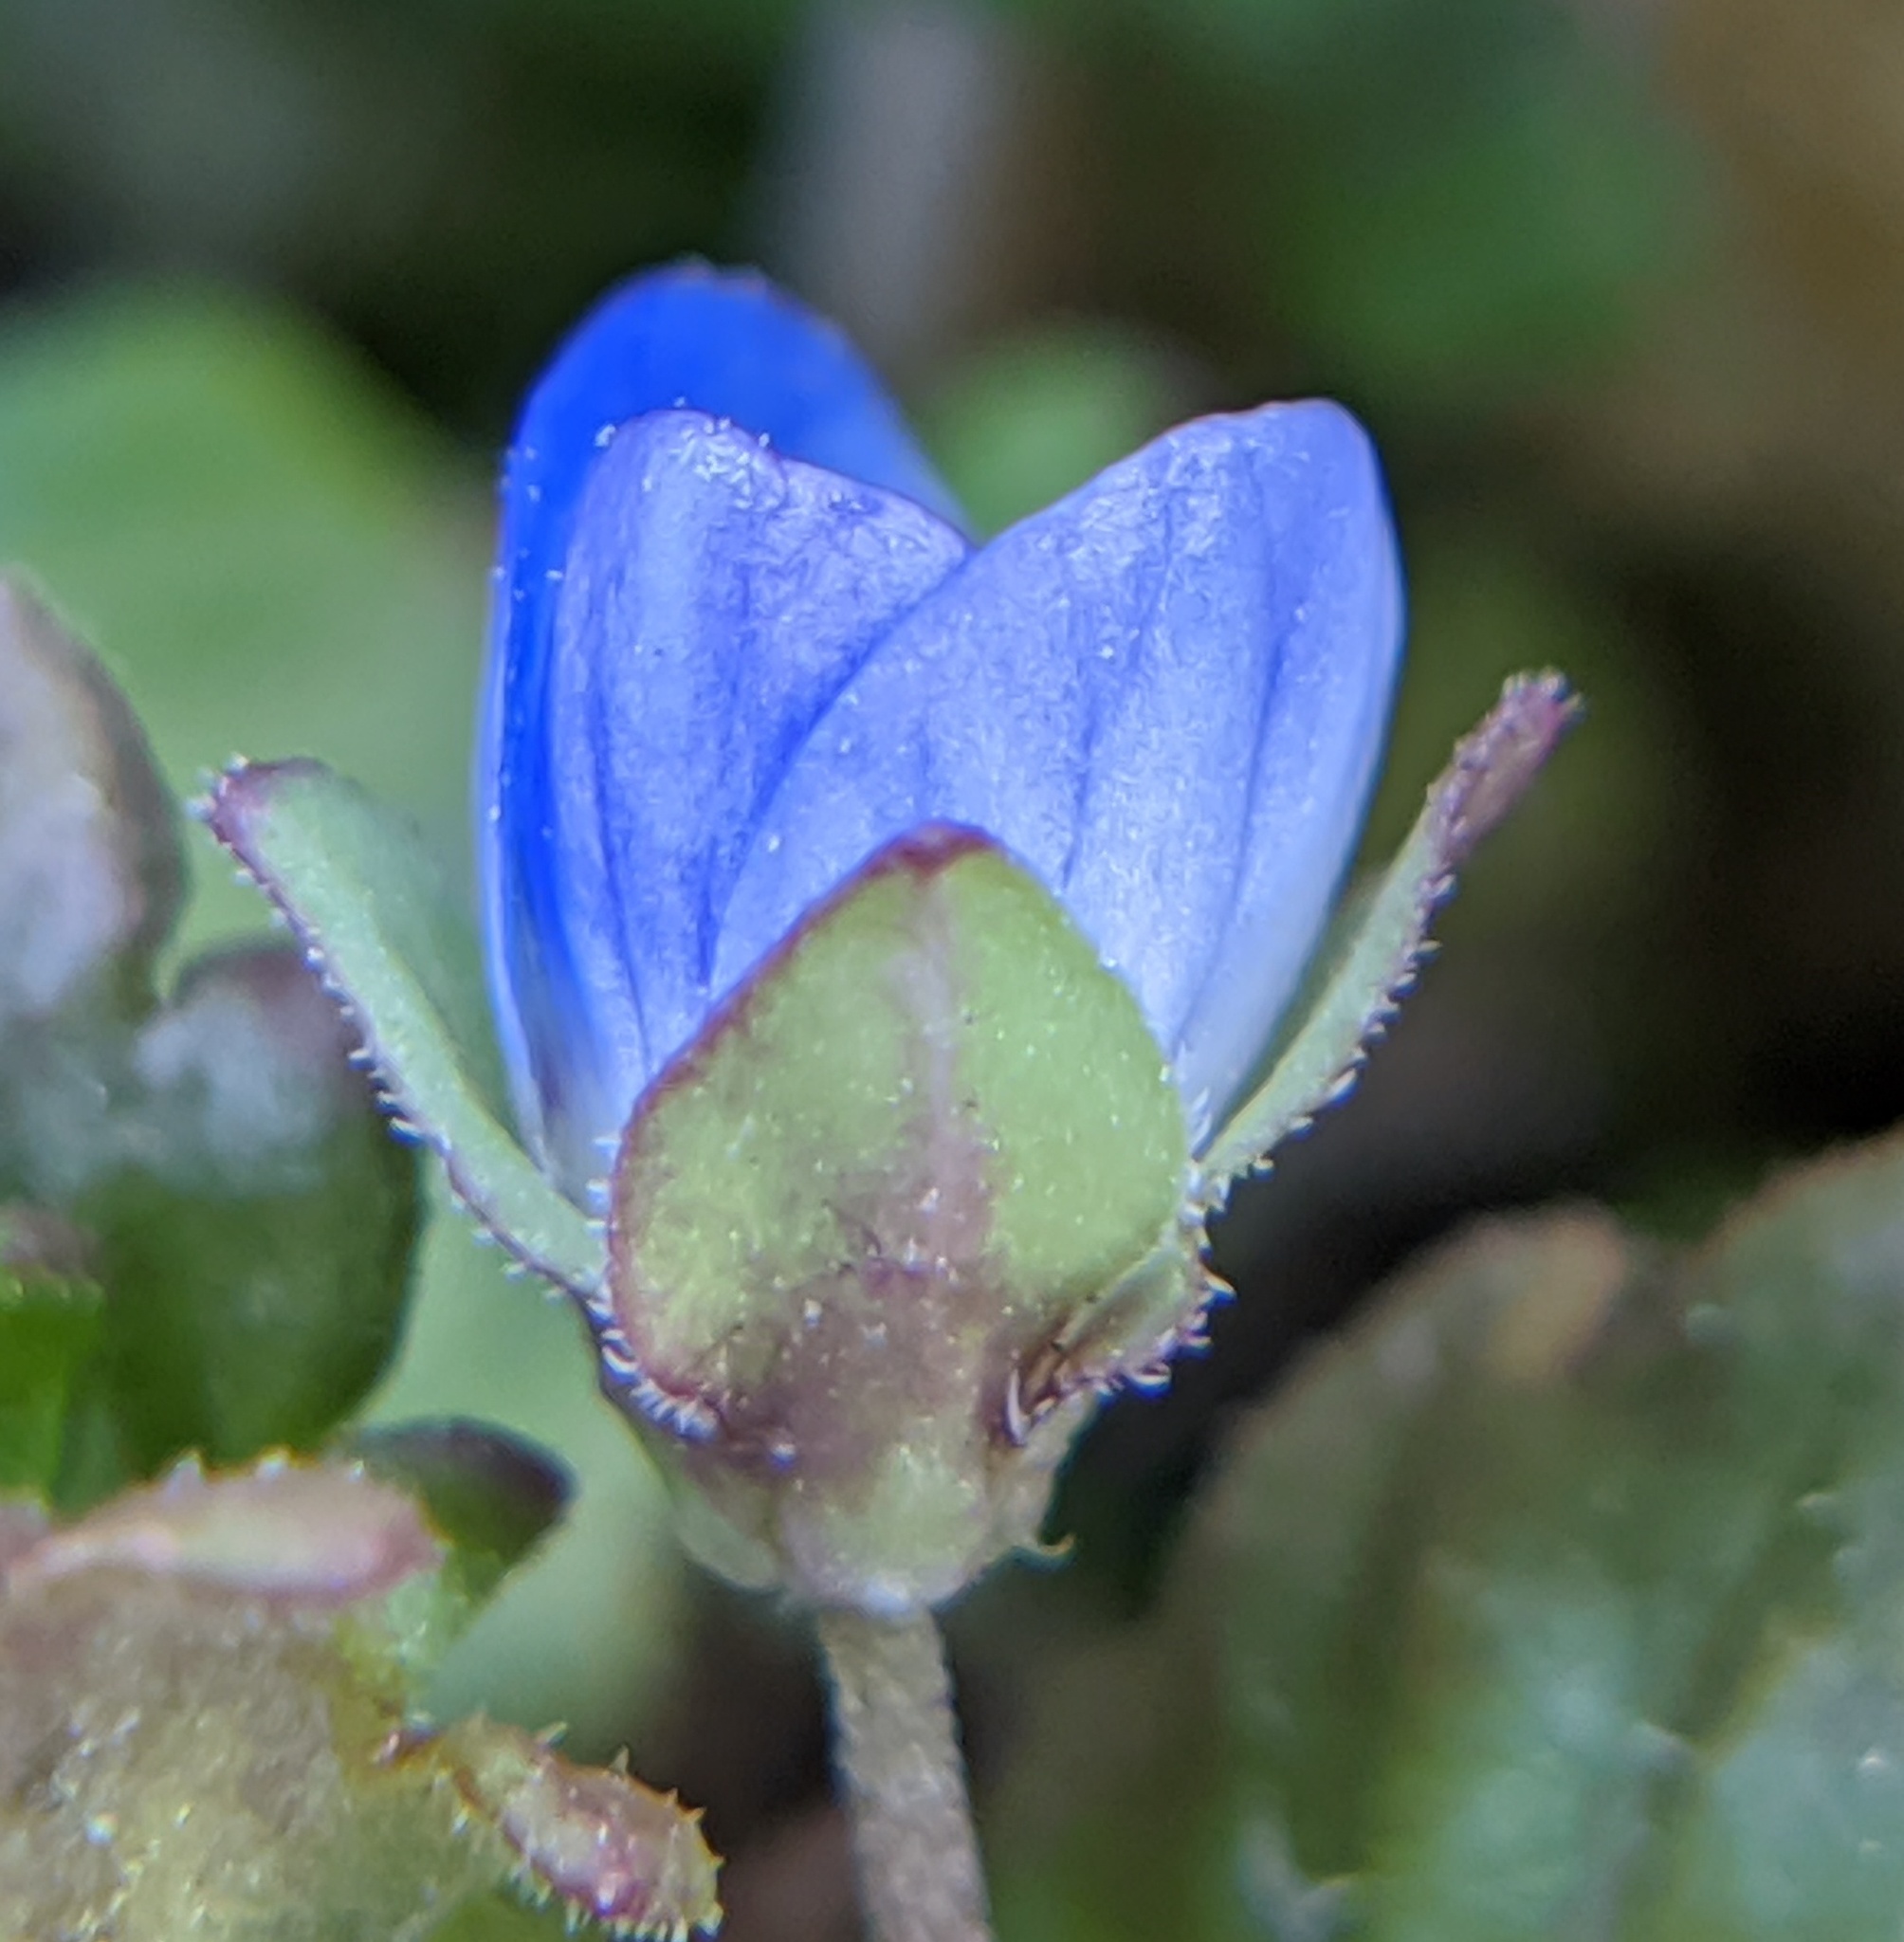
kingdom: Plantae
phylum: Tracheophyta
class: Magnoliopsida
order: Lamiales
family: Plantaginaceae
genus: Veronica
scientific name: Veronica polita
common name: Grey field-speedwell
